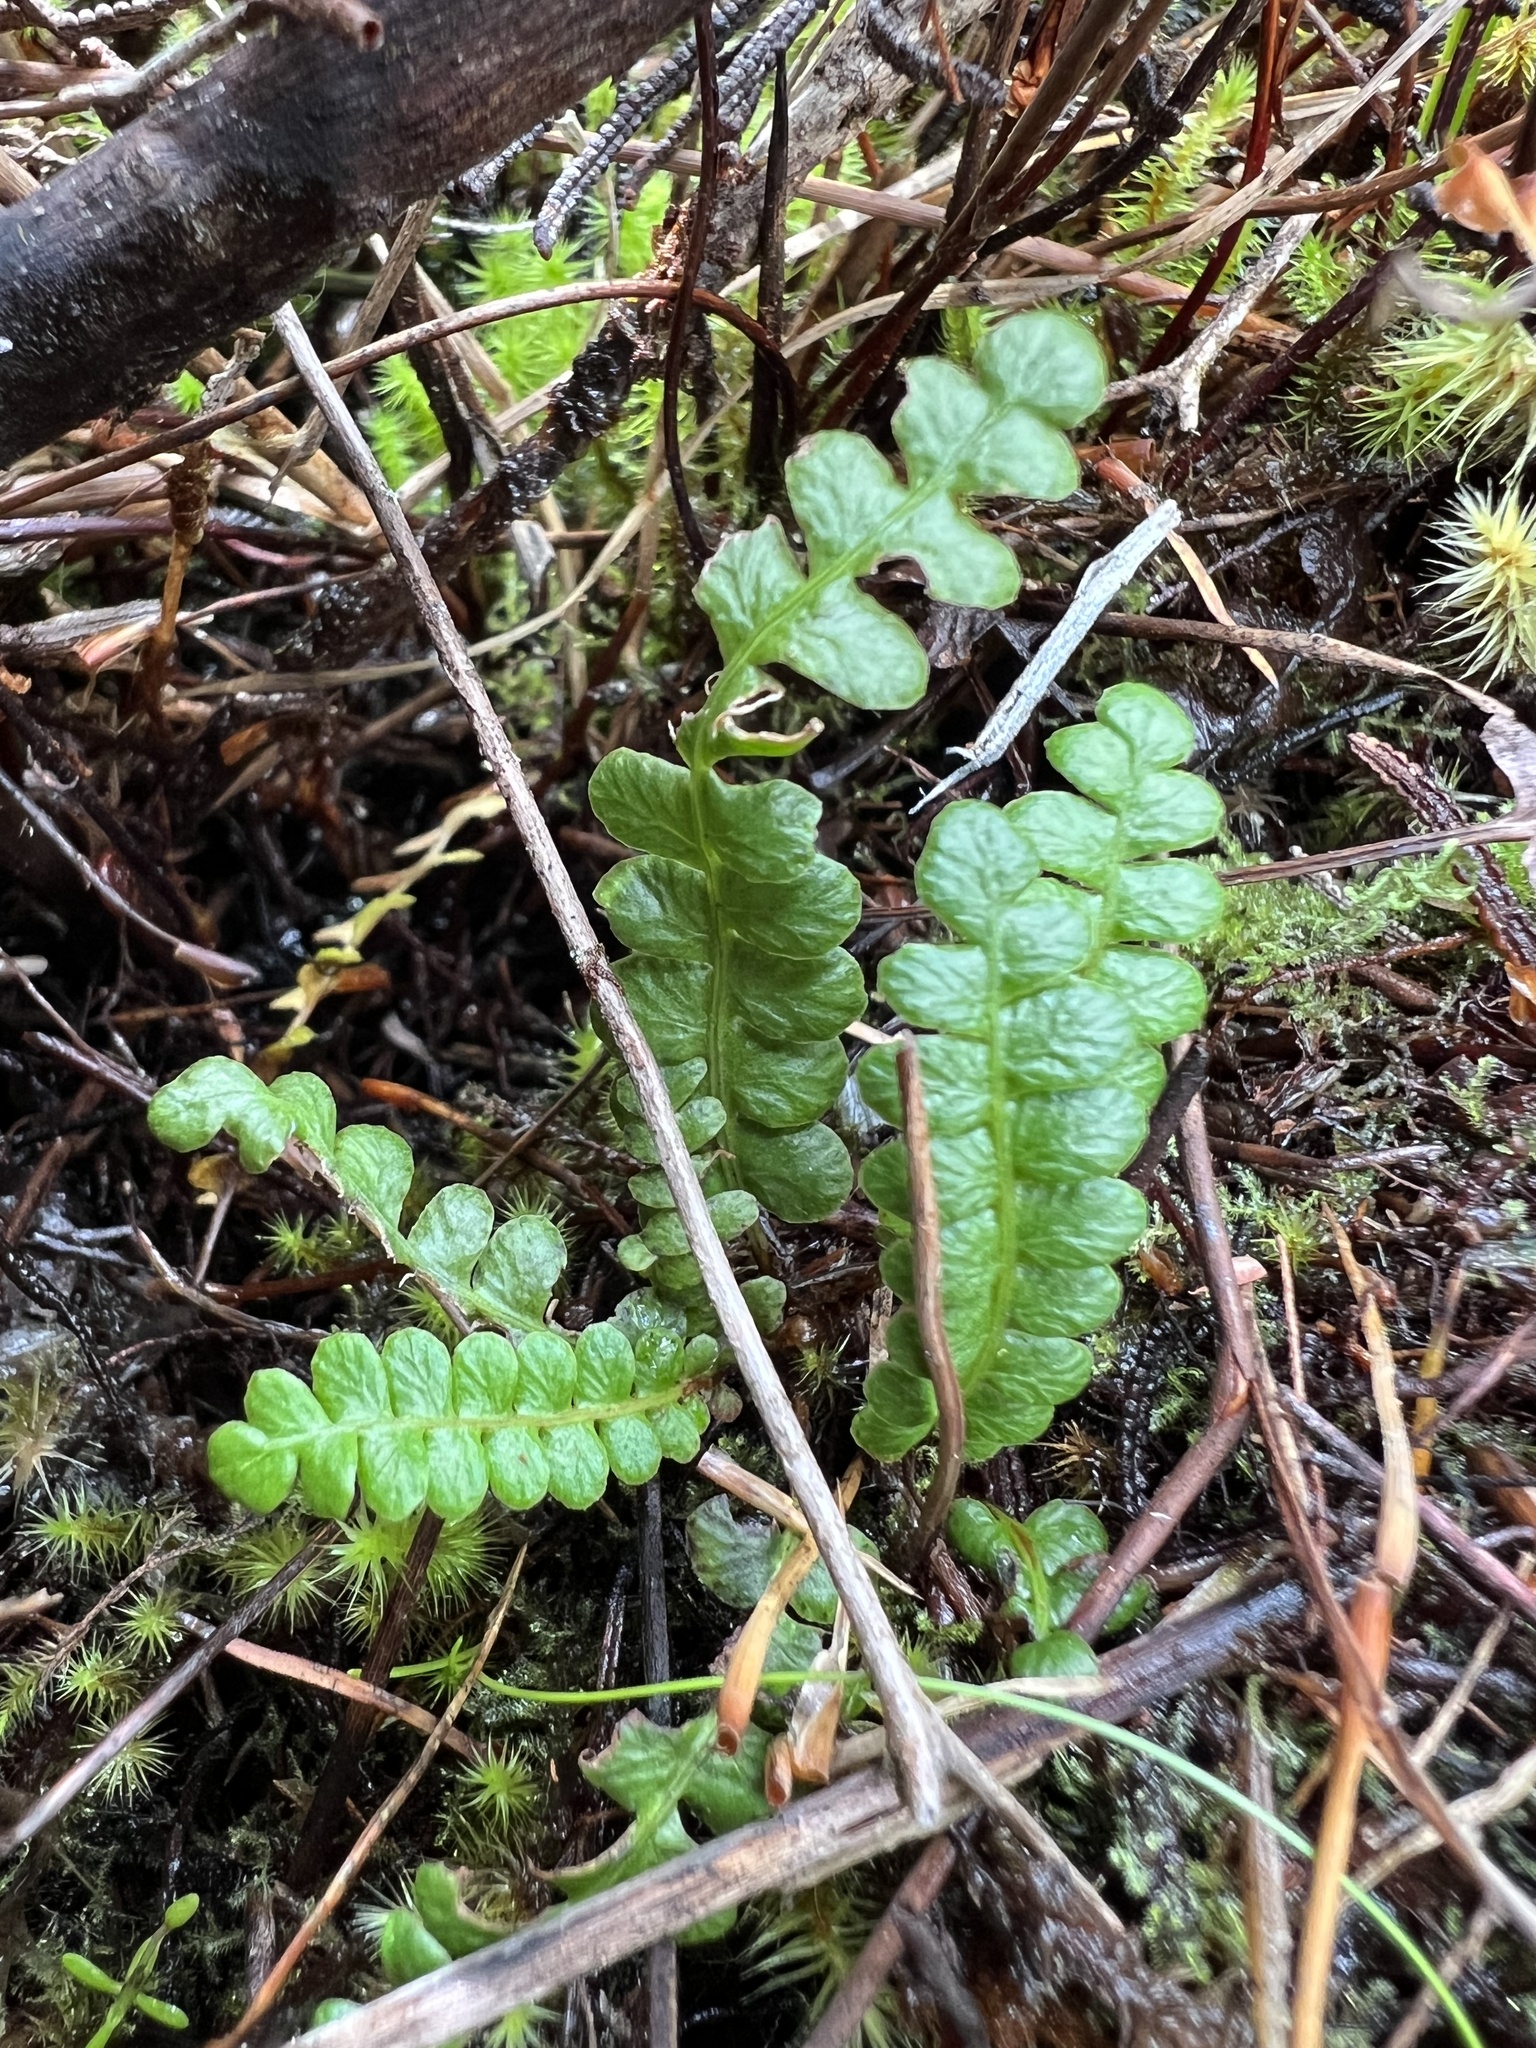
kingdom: Plantae
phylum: Tracheophyta
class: Polypodiopsida
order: Polypodiales
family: Blechnaceae
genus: Austroblechnum
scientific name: Austroblechnum penna-marina
